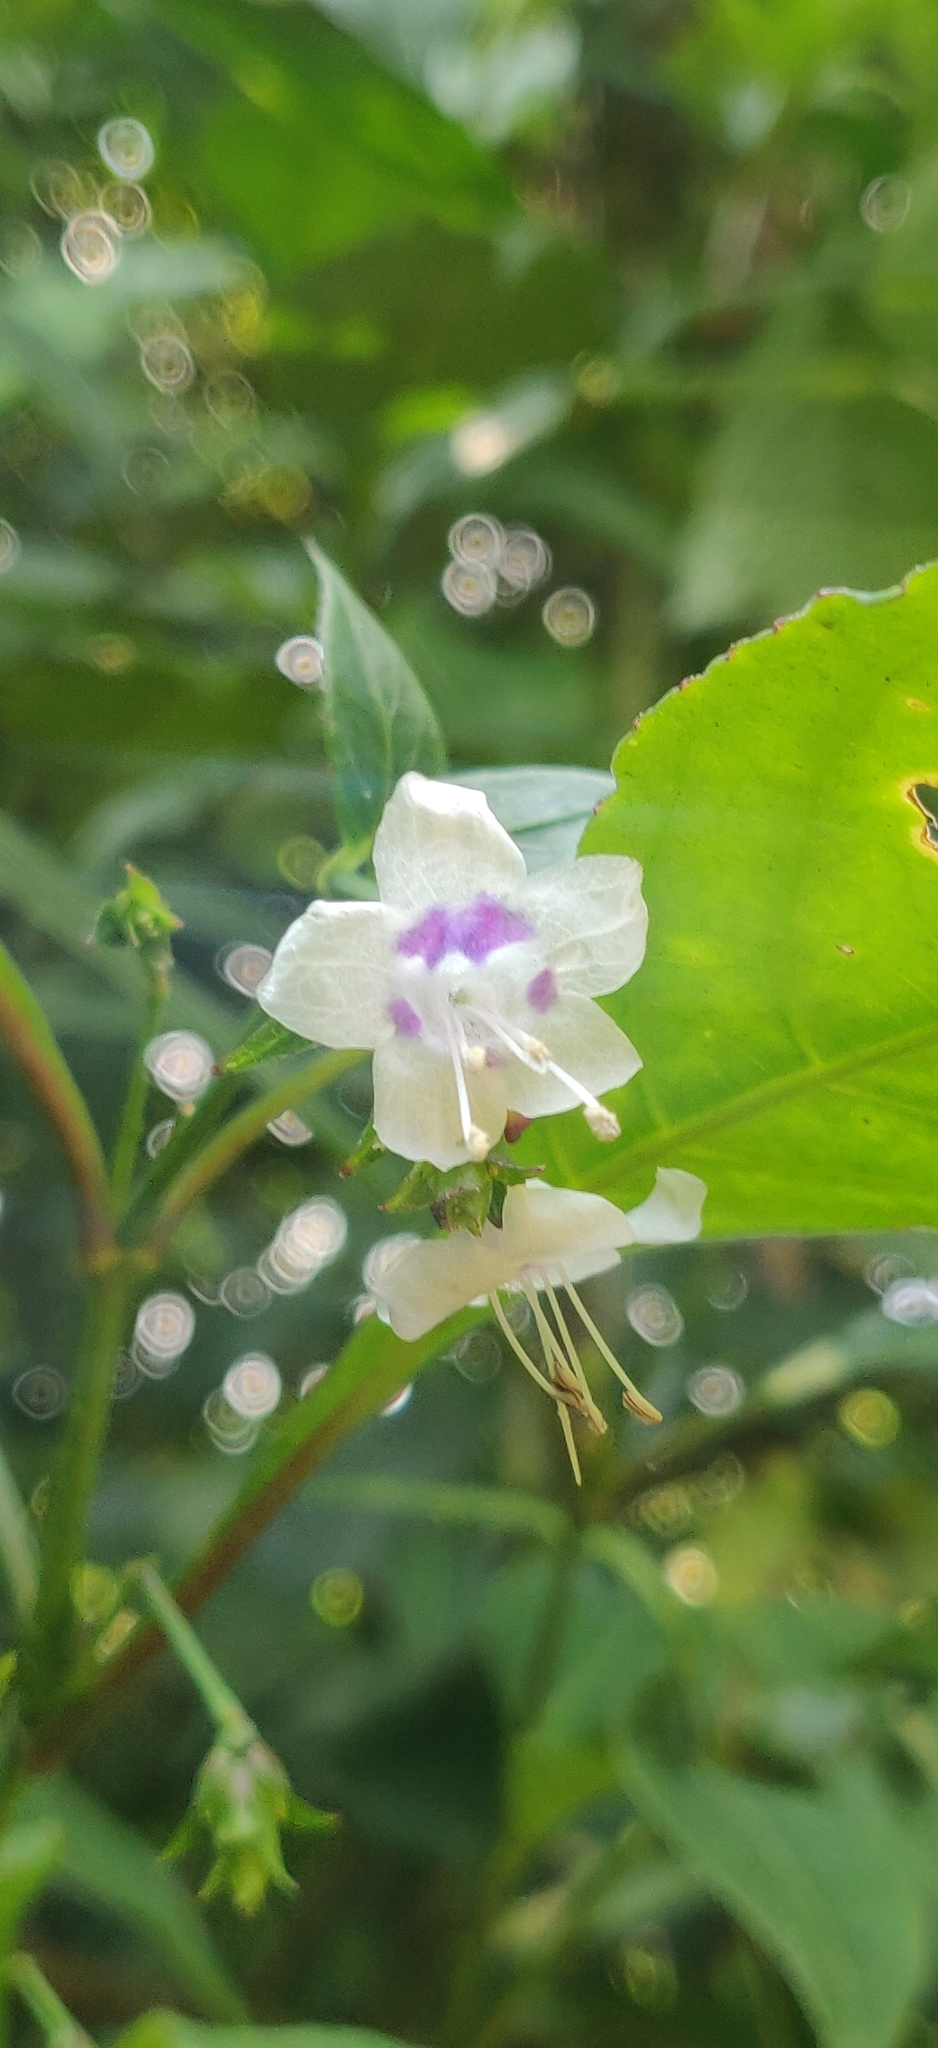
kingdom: Plantae
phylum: Tracheophyta
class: Magnoliopsida
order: Lamiales
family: Acanthaceae
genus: Strobilanthes
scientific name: Strobilanthes ciliata
